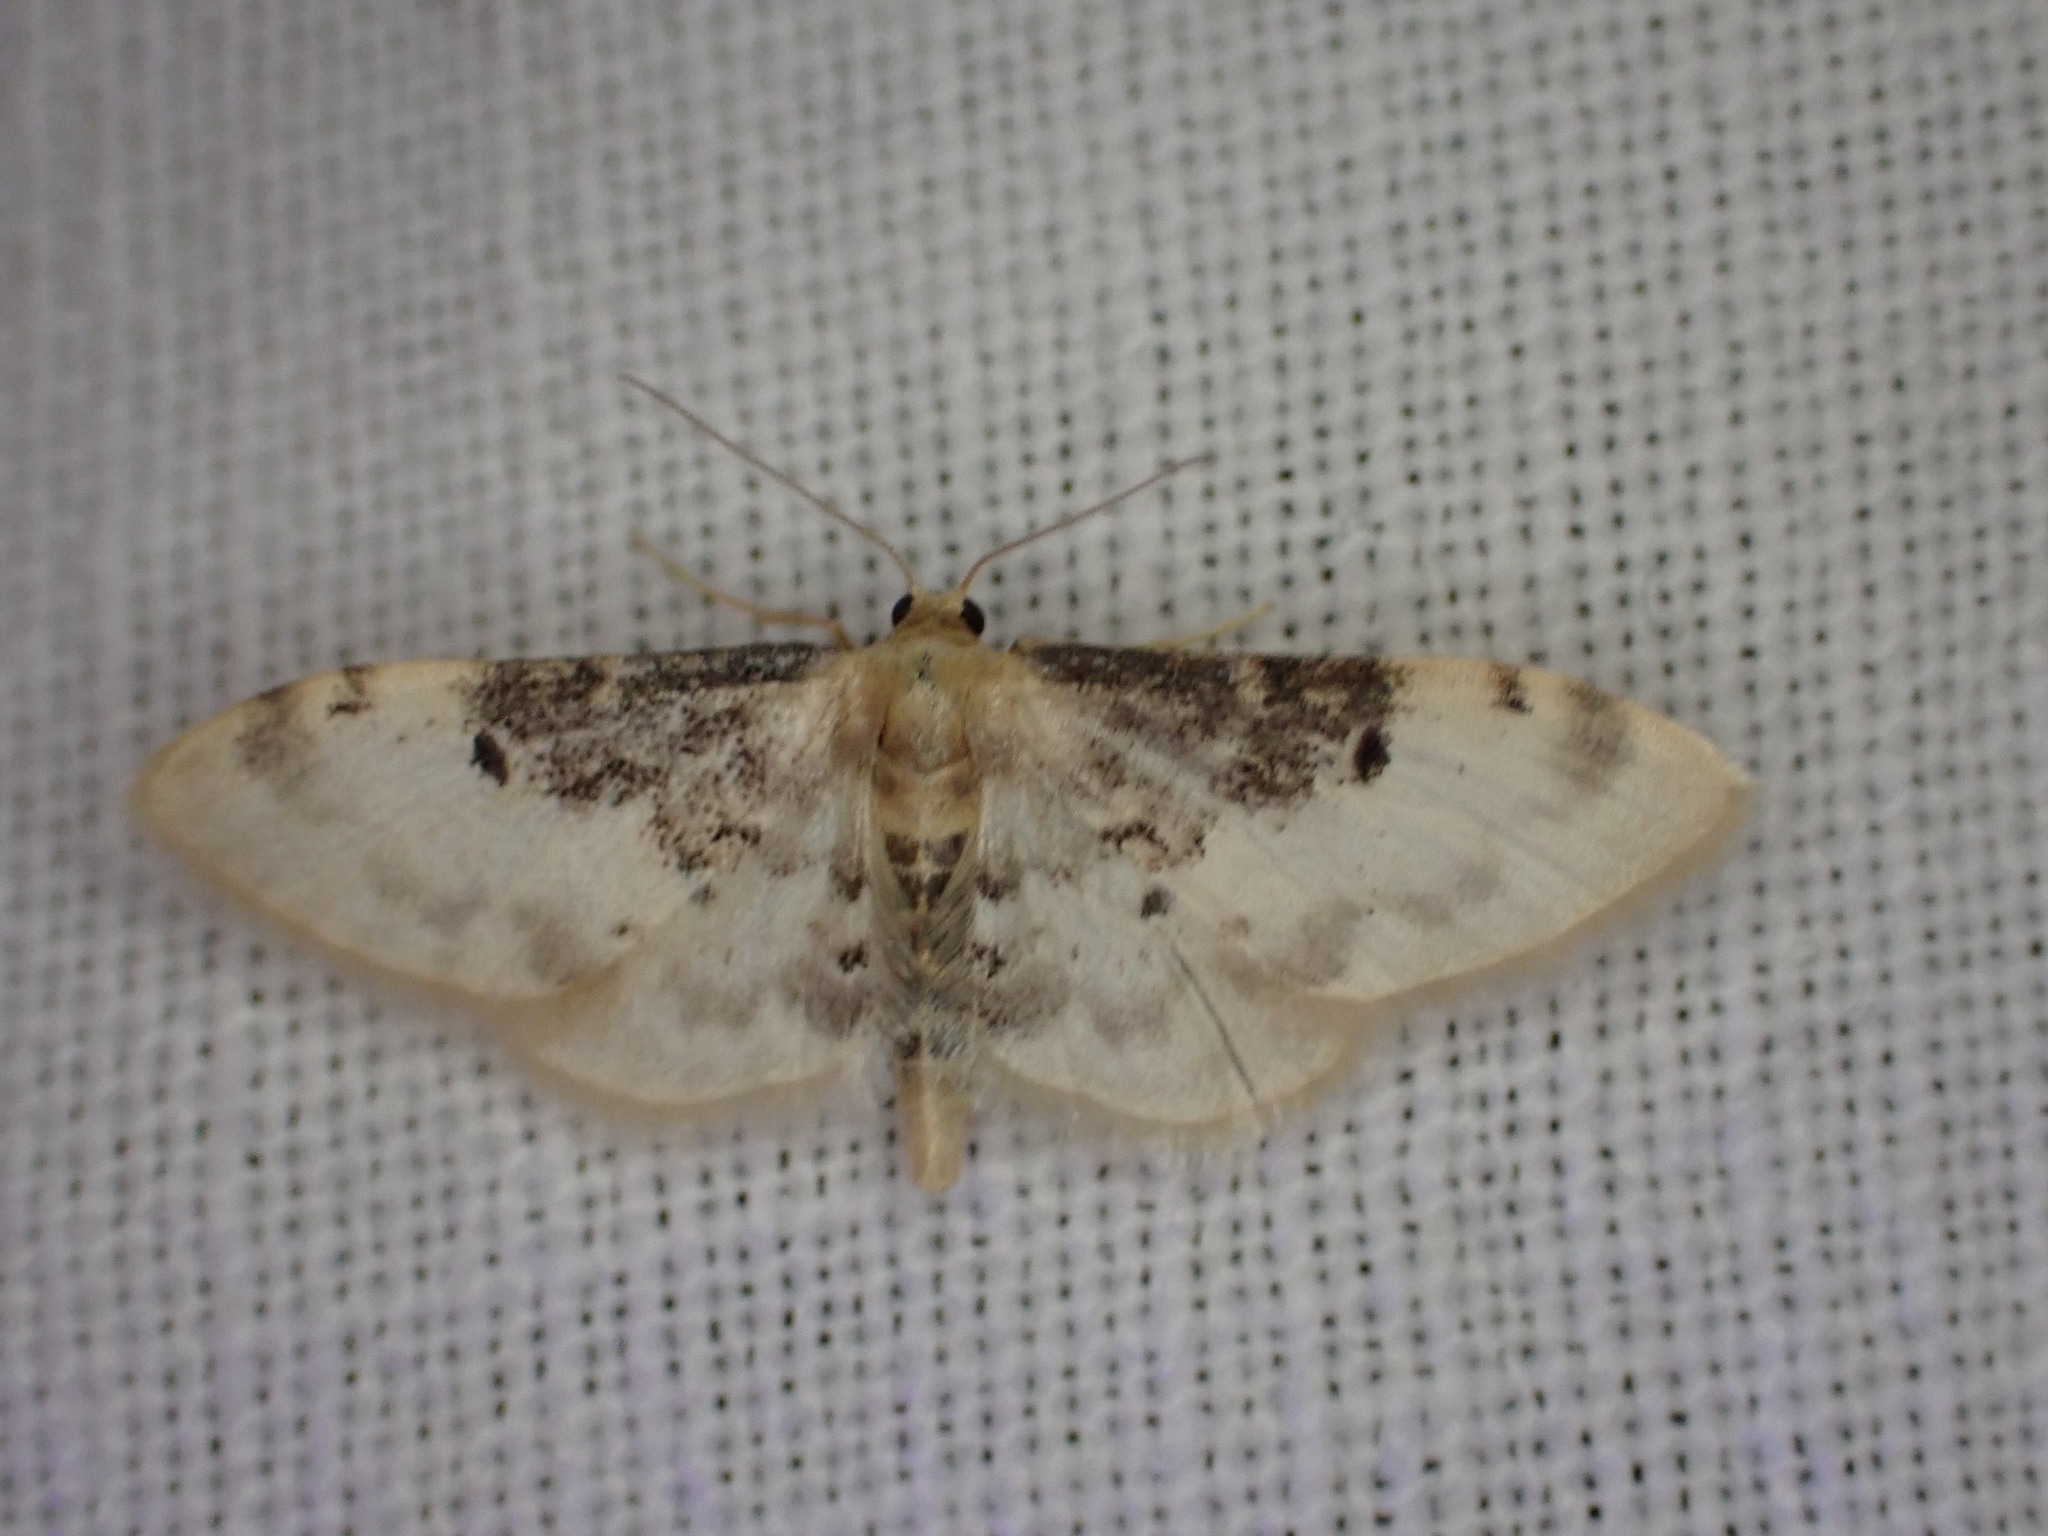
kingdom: Animalia
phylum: Arthropoda
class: Insecta
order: Lepidoptera
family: Geometridae
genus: Idaea
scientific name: Idaea filicata
